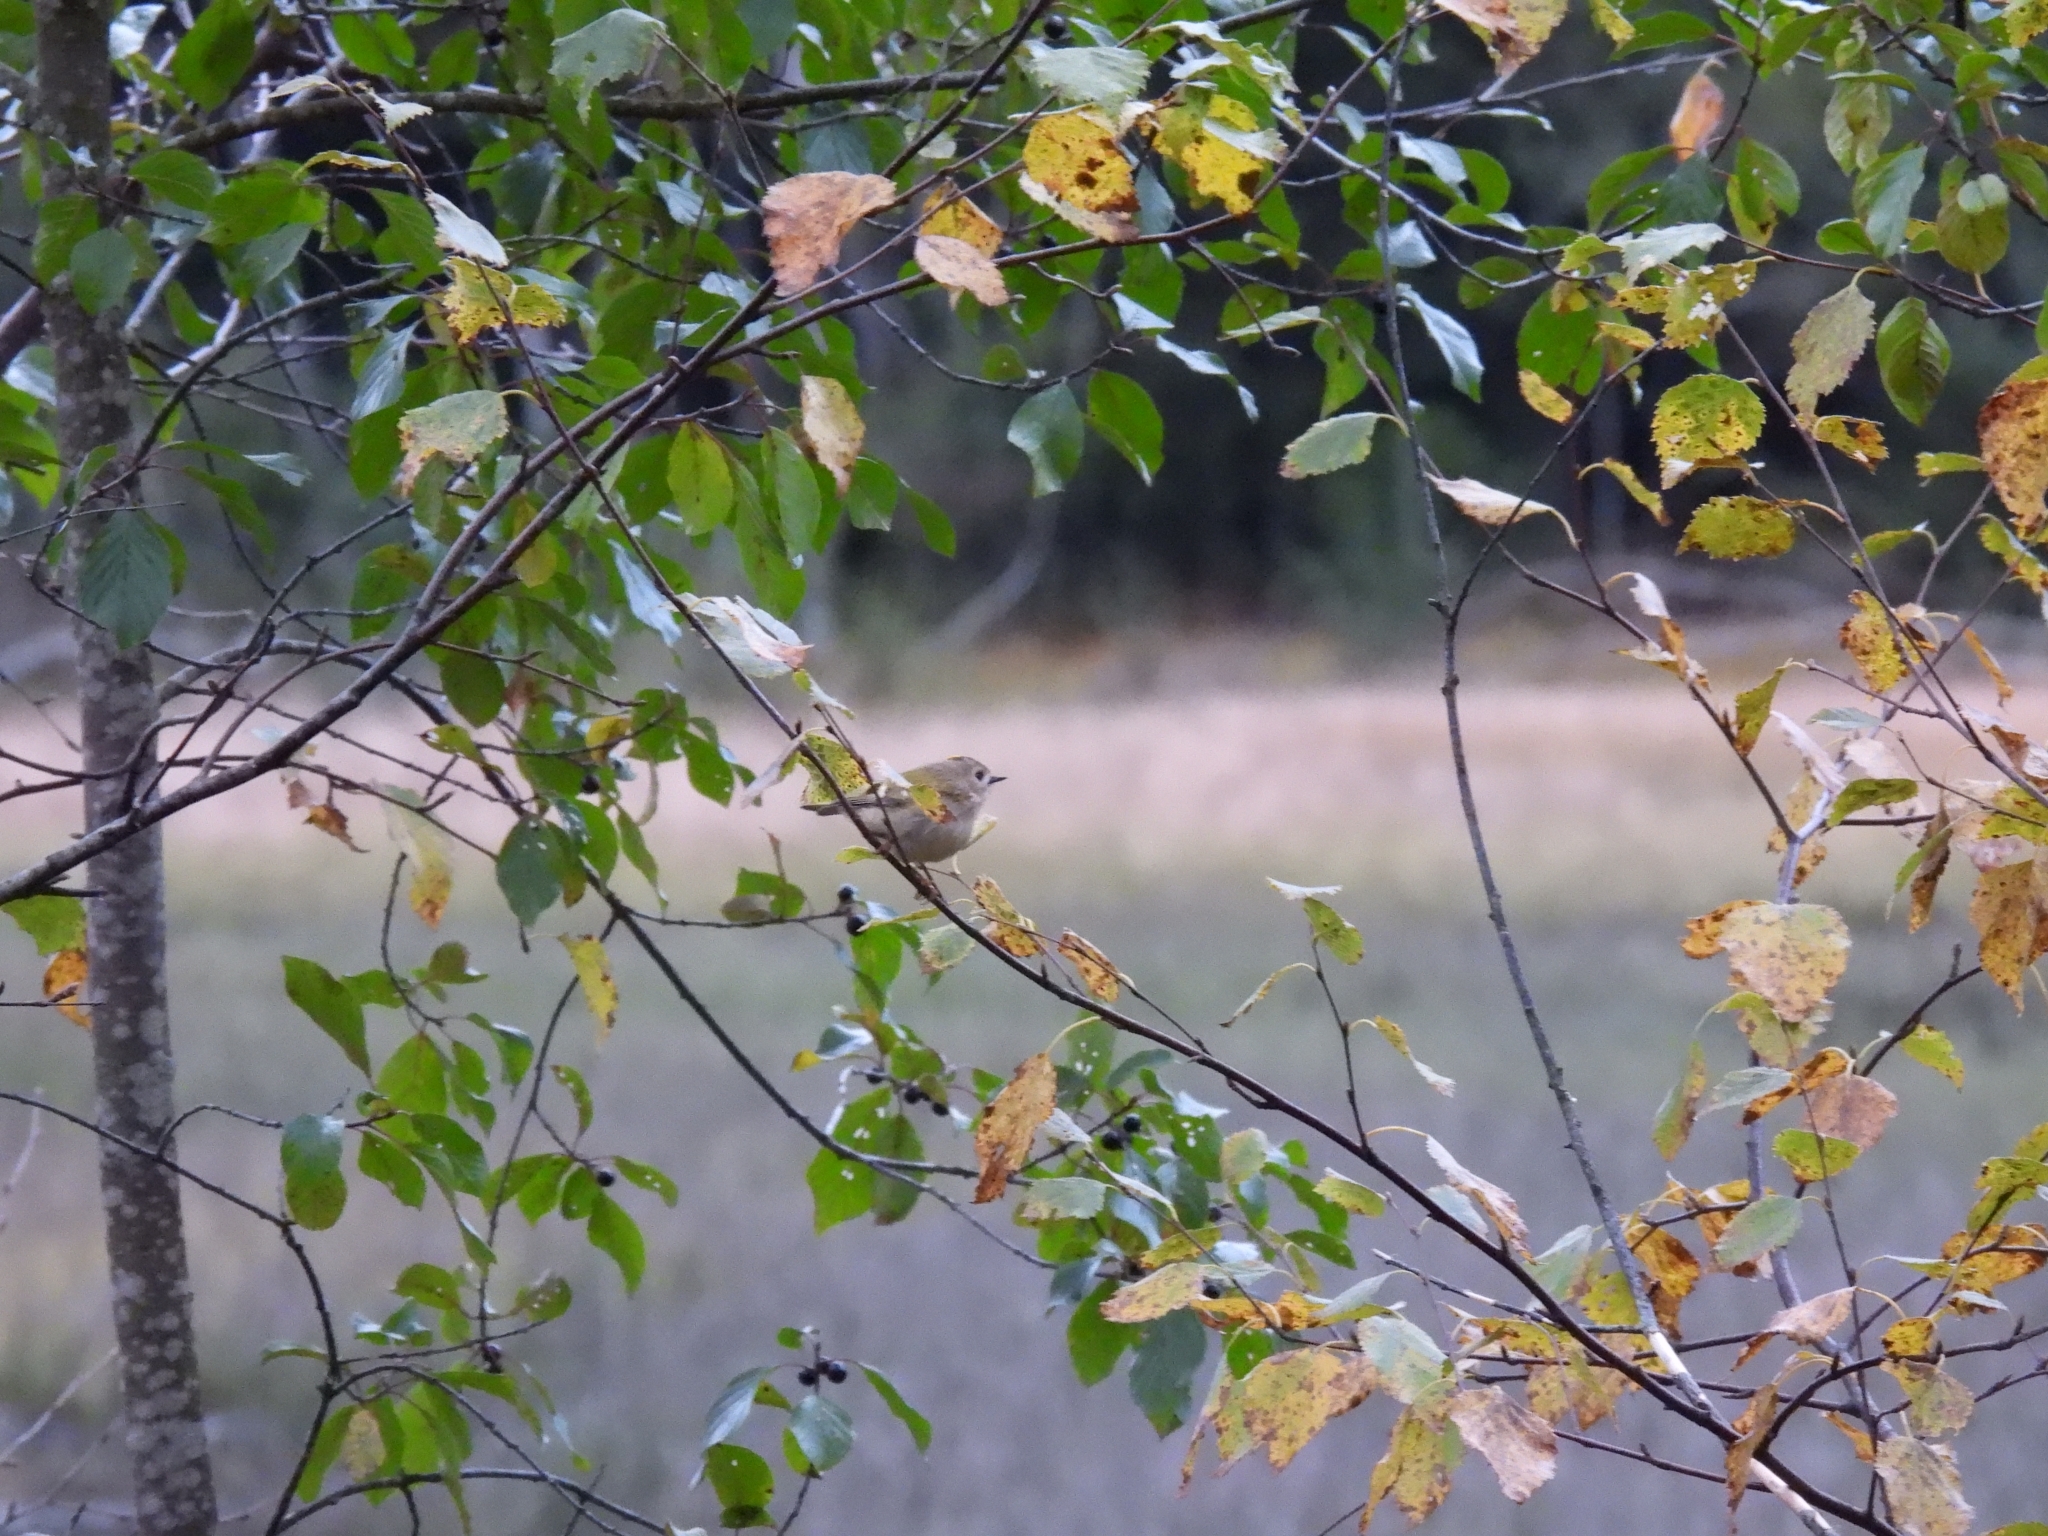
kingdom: Animalia
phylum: Chordata
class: Aves
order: Passeriformes
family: Regulidae
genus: Regulus
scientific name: Regulus ignicapilla
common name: Firecrest
